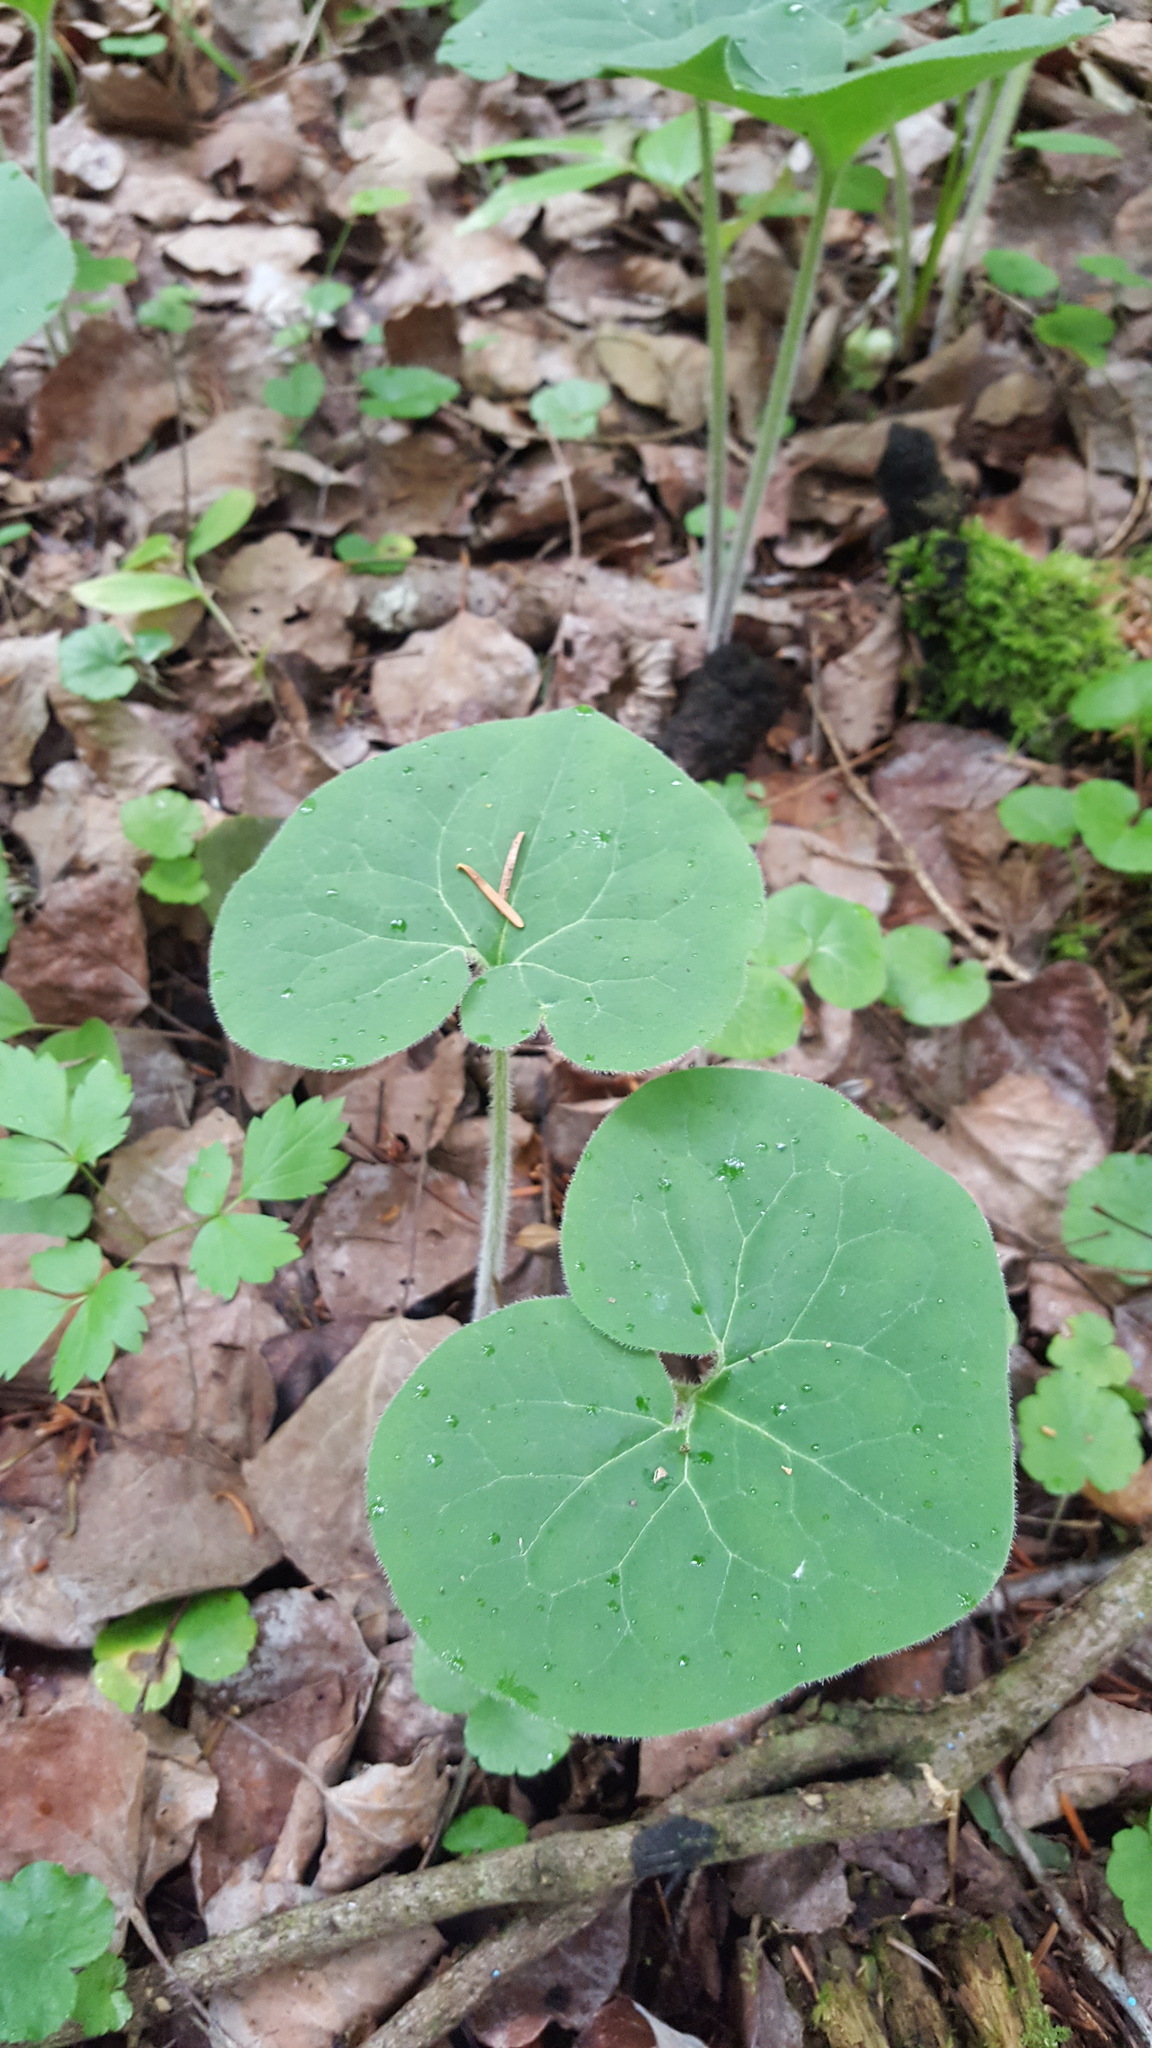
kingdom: Plantae
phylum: Tracheophyta
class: Magnoliopsida
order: Piperales
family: Aristolochiaceae
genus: Asarum
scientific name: Asarum canadense
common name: Wild ginger
